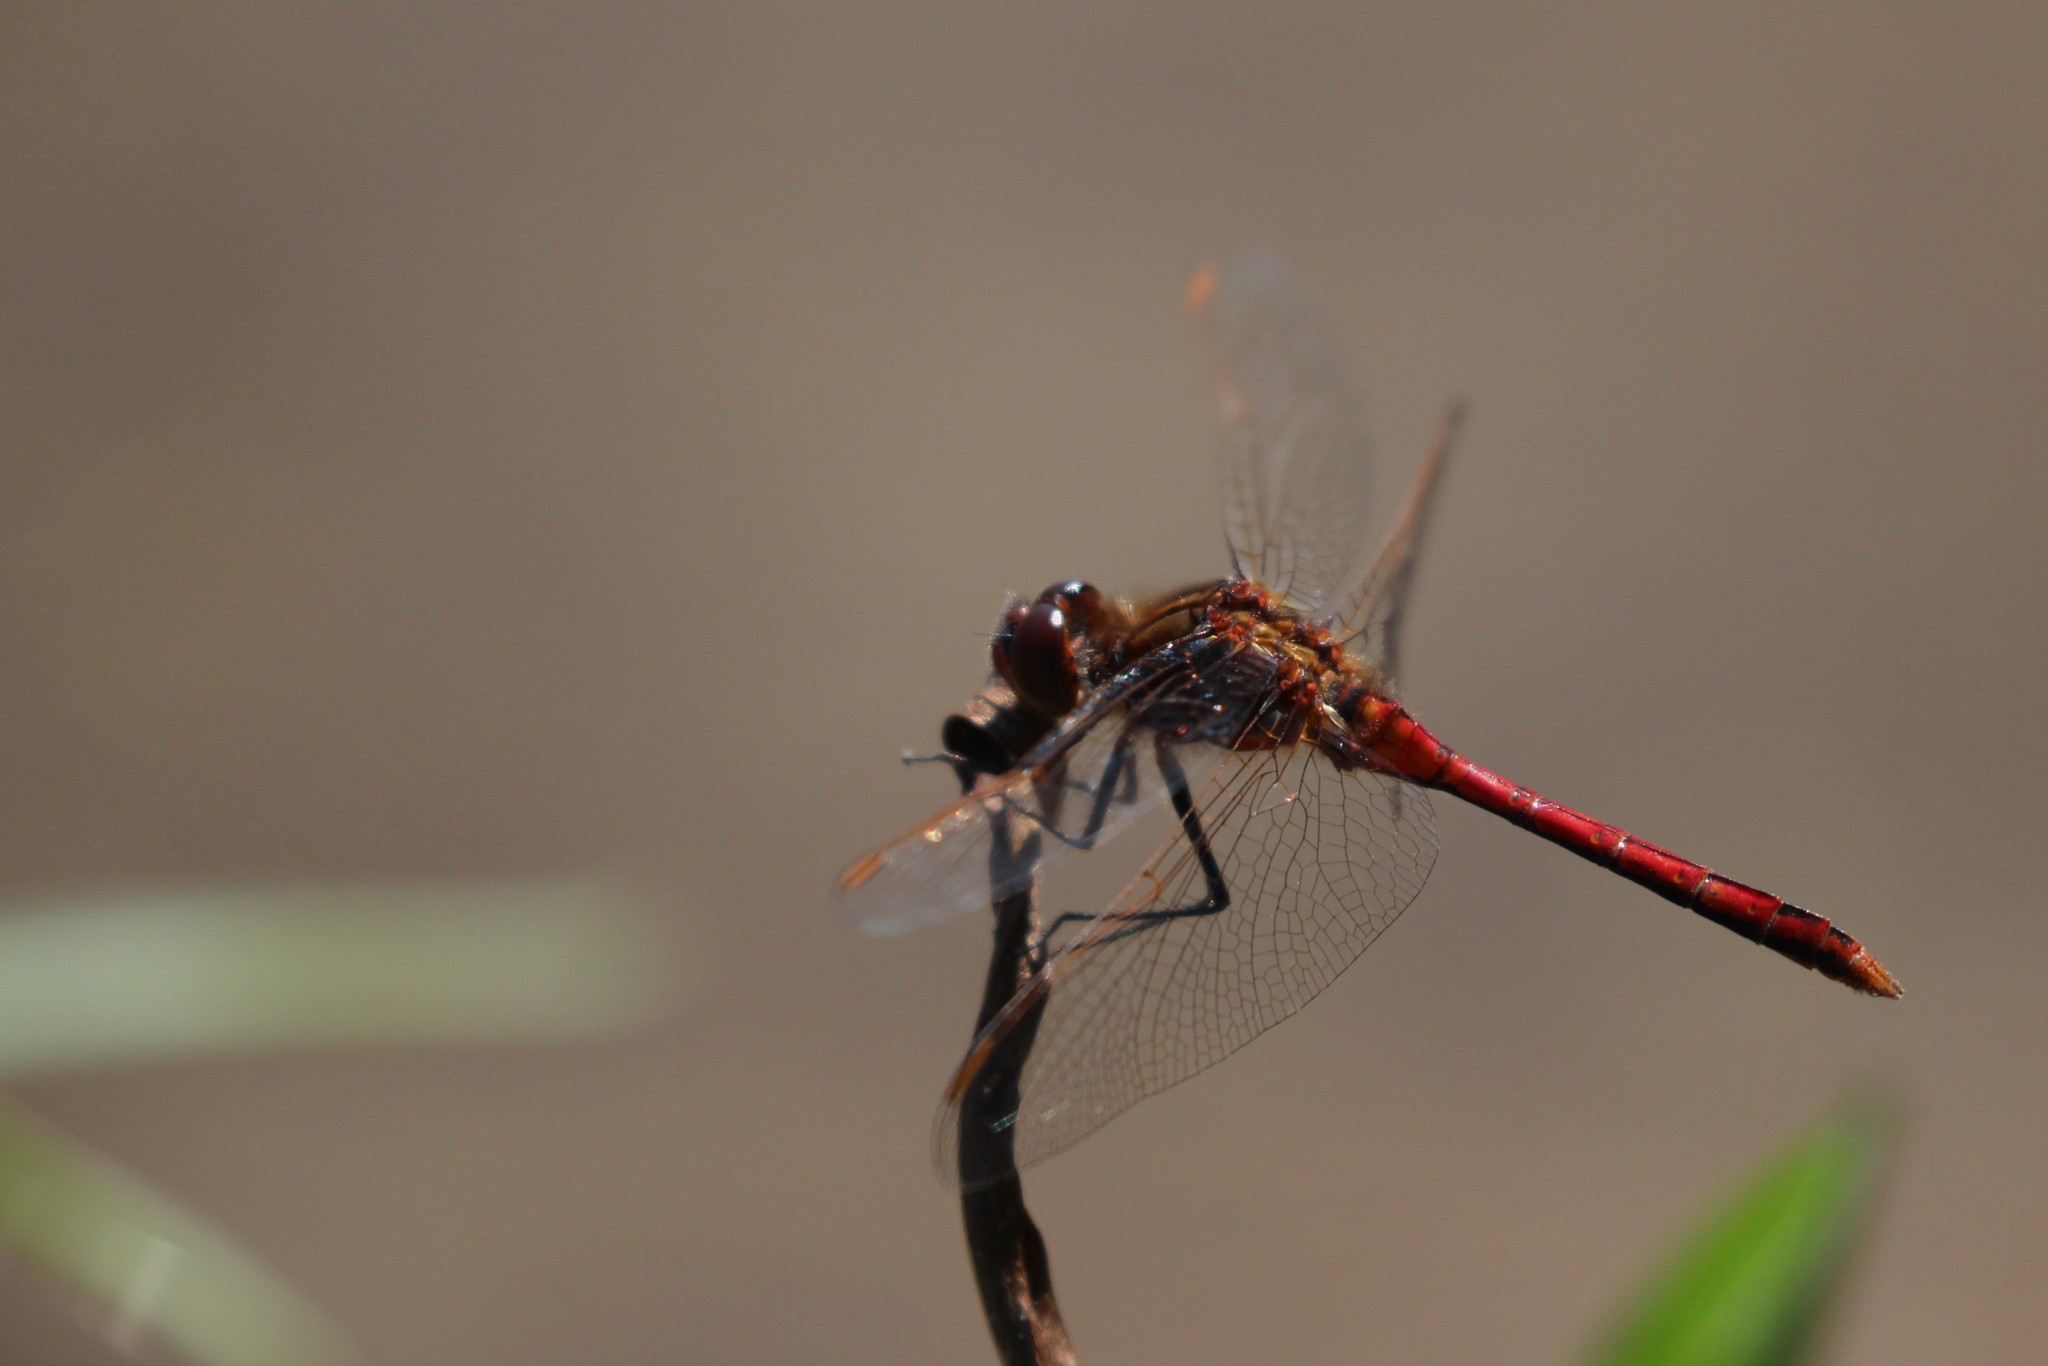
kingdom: Animalia
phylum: Arthropoda
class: Insecta
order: Odonata
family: Libellulidae
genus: Sympetrum
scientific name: Sympetrum costiferum
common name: Saffron-winged meadowhawk
